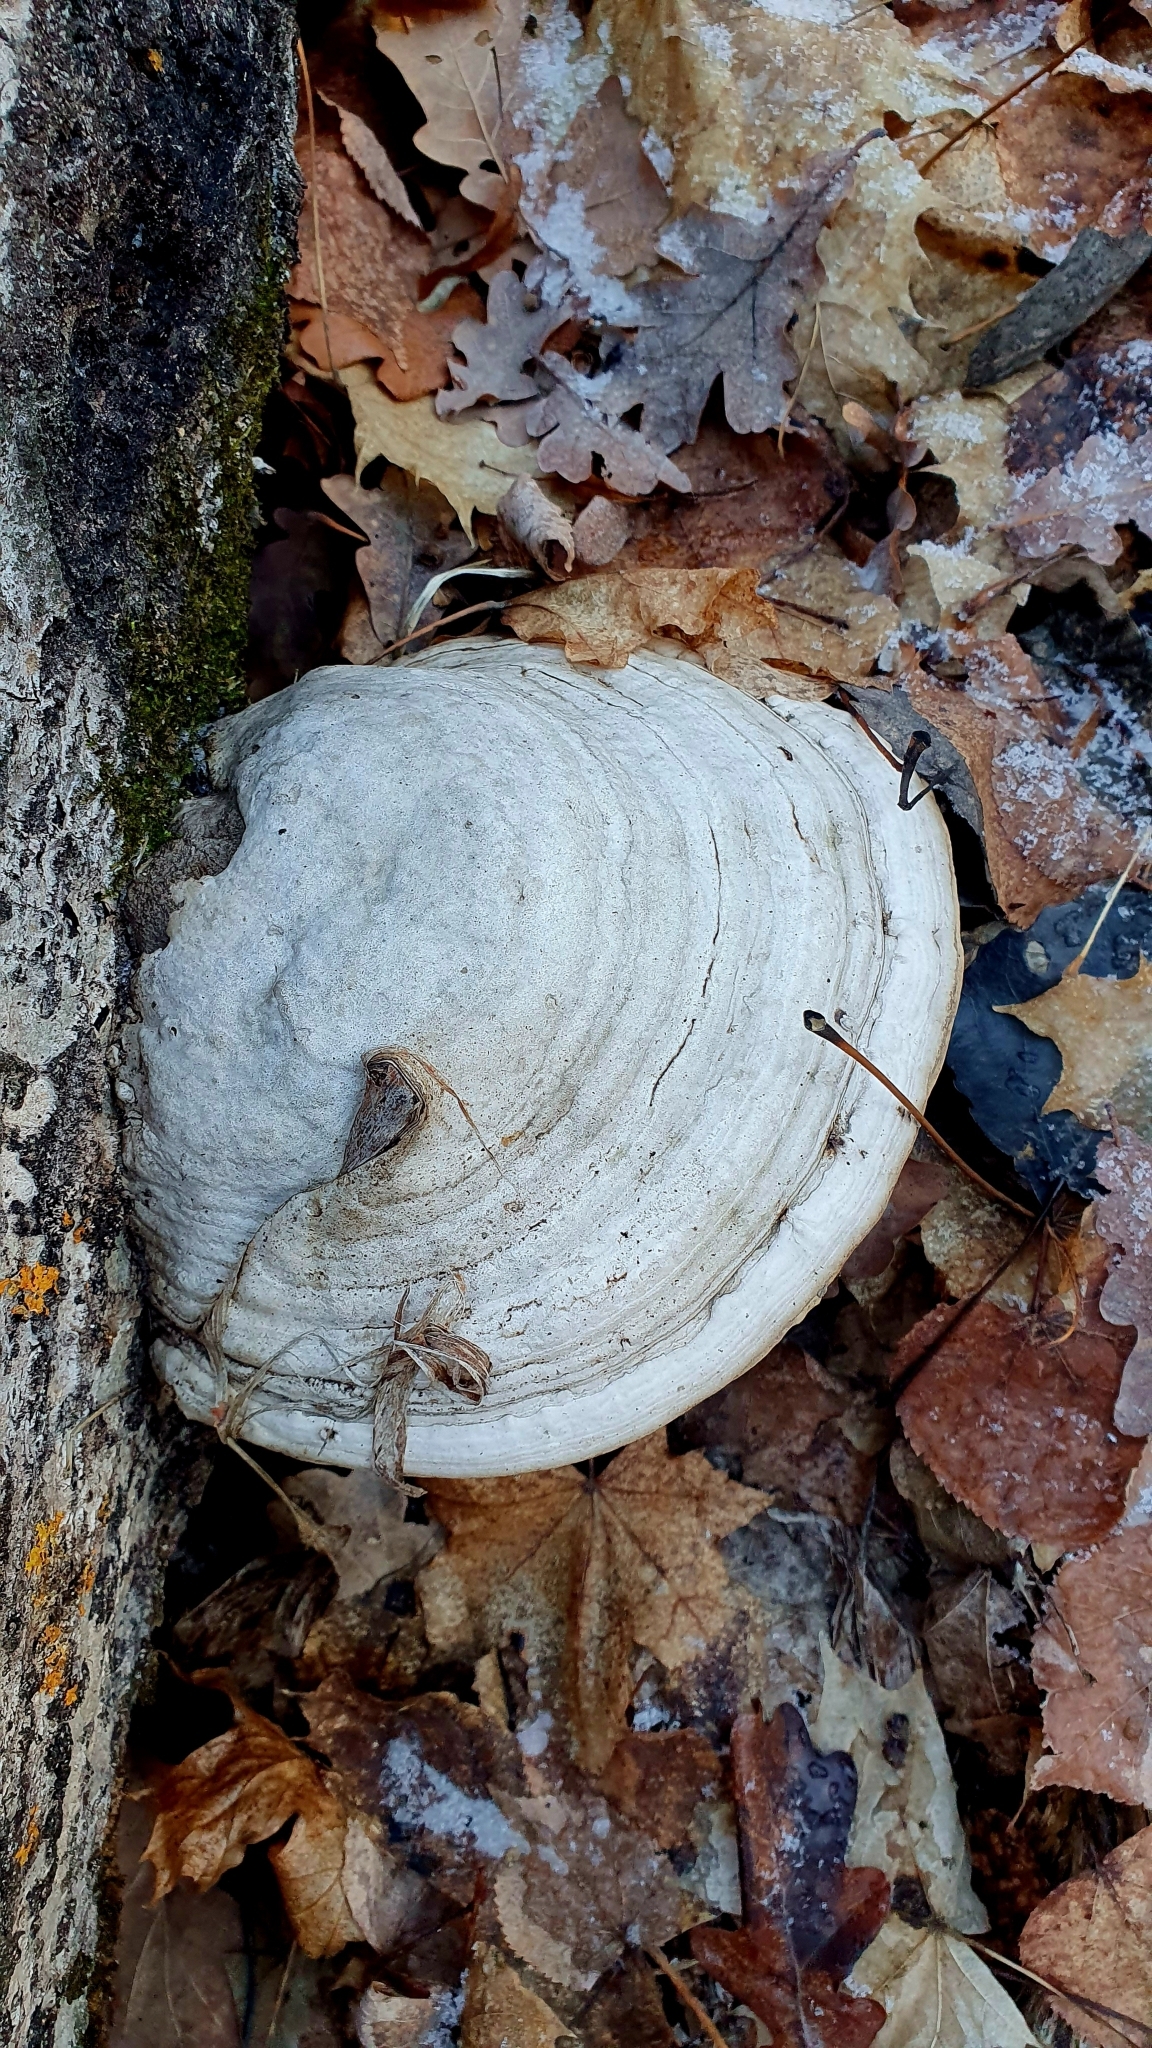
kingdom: Fungi
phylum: Basidiomycota
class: Agaricomycetes
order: Polyporales
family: Polyporaceae
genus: Fomes
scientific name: Fomes fomentarius
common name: Hoof fungus
